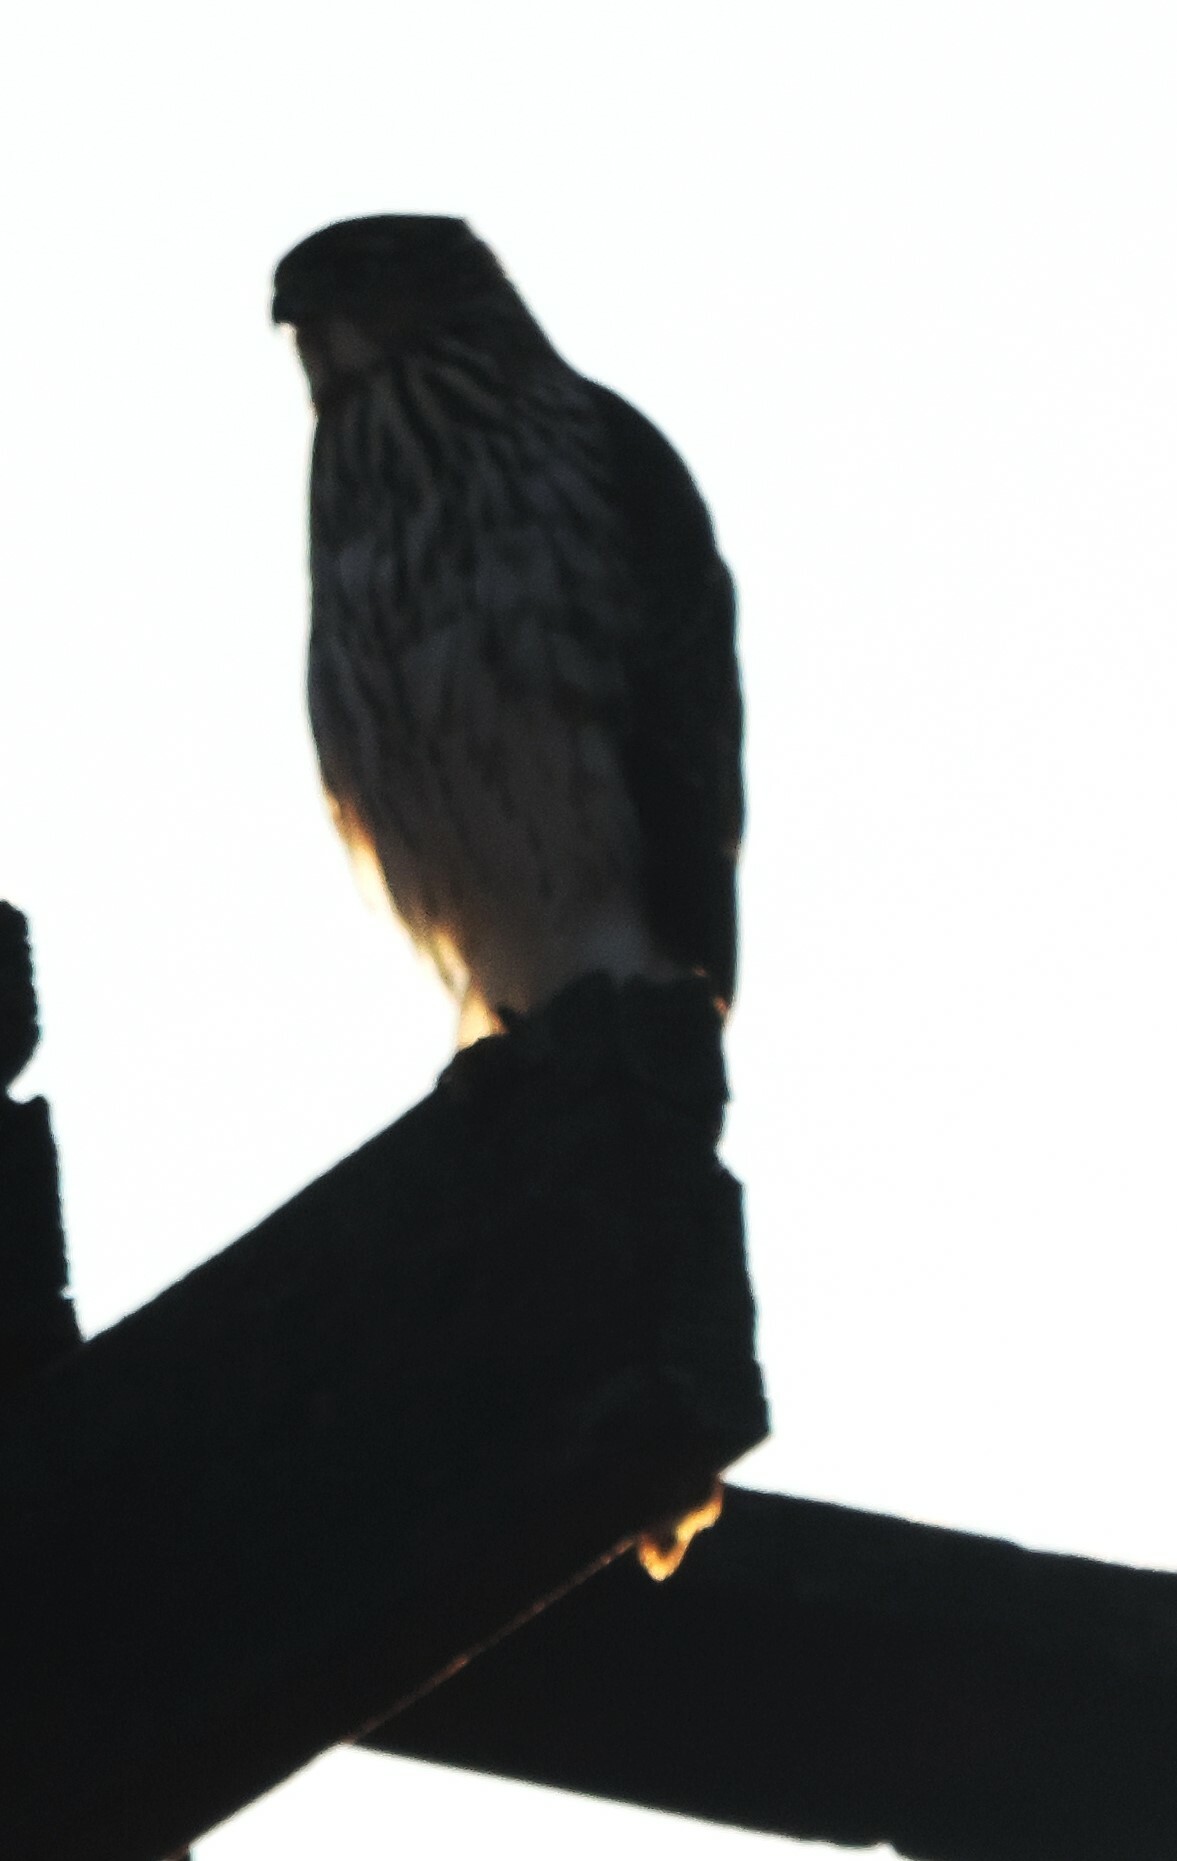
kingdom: Animalia
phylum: Chordata
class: Aves
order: Accipitriformes
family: Accipitridae
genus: Accipiter
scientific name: Accipiter cooperii
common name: Cooper's hawk
